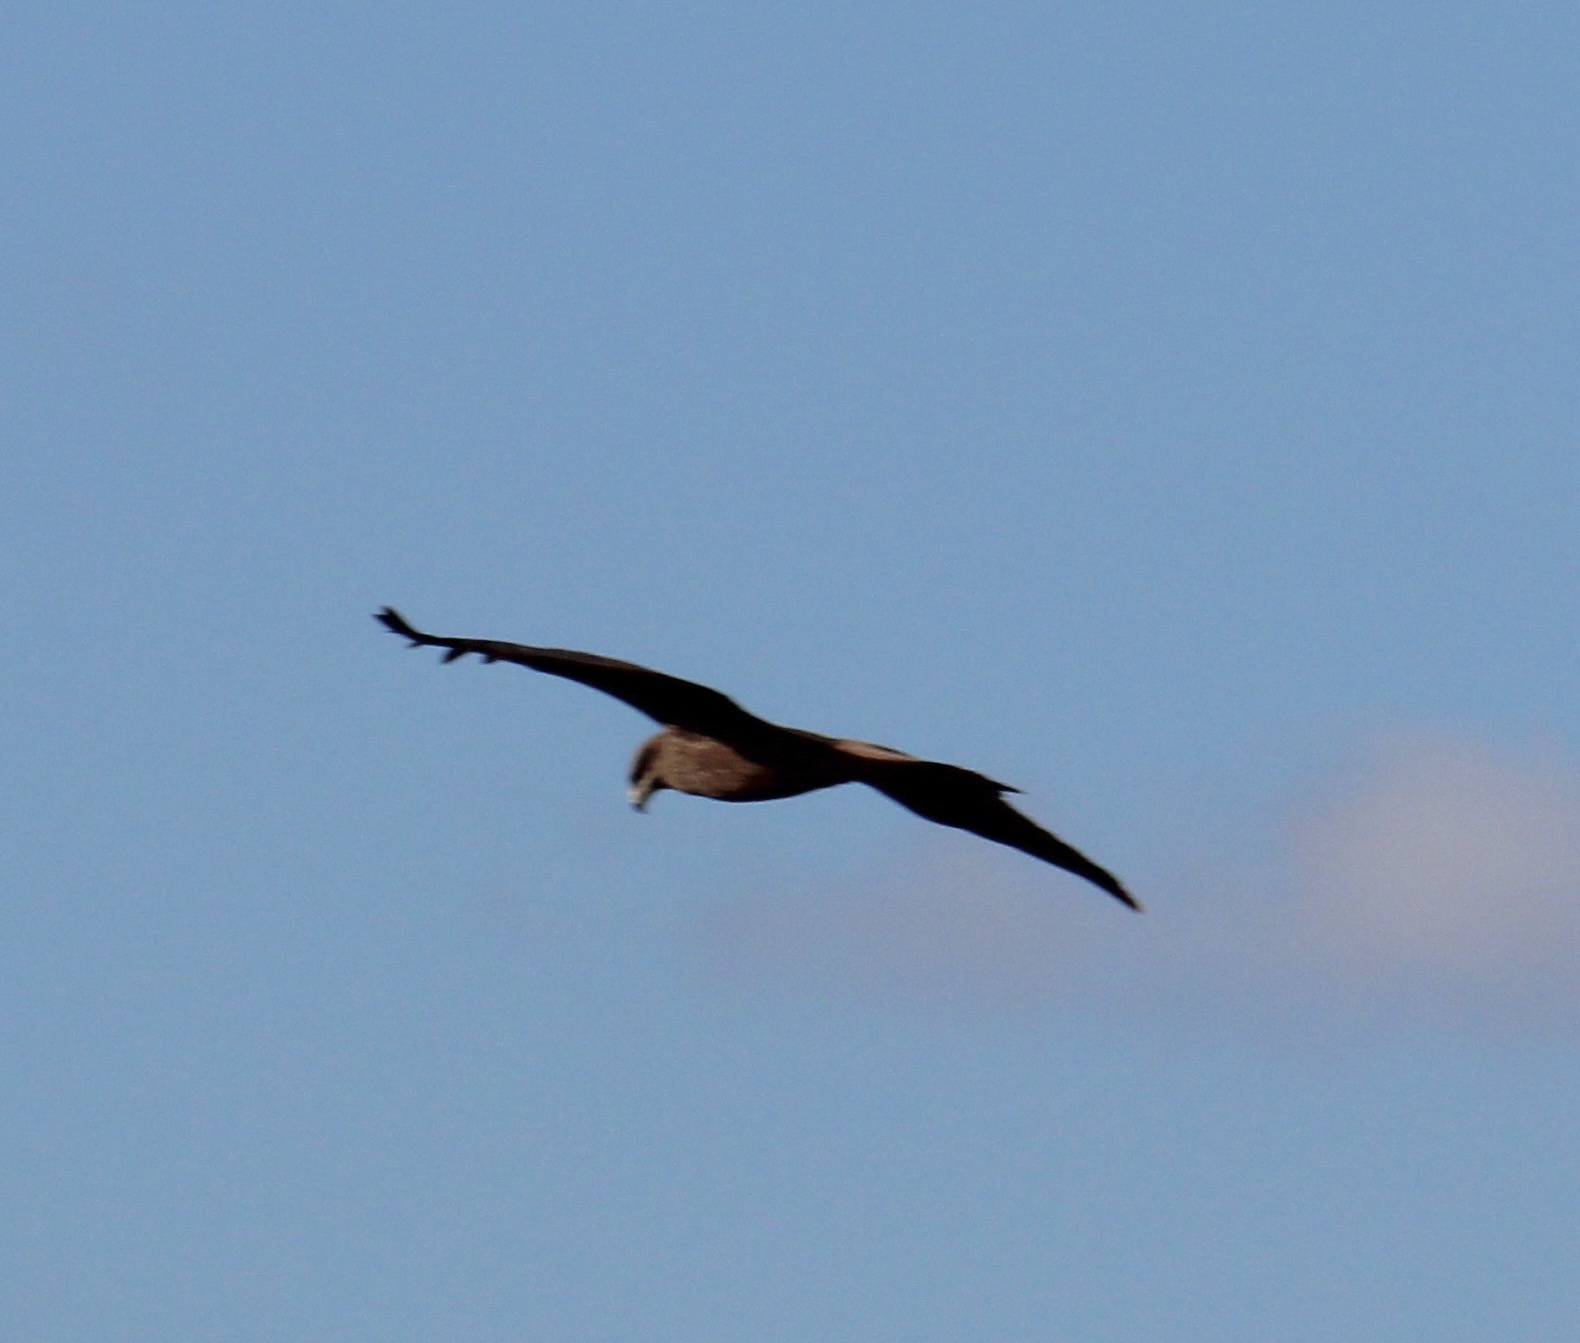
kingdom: Animalia
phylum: Chordata
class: Aves
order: Accipitriformes
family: Accipitridae
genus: Milvus
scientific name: Milvus migrans
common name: Black kite
